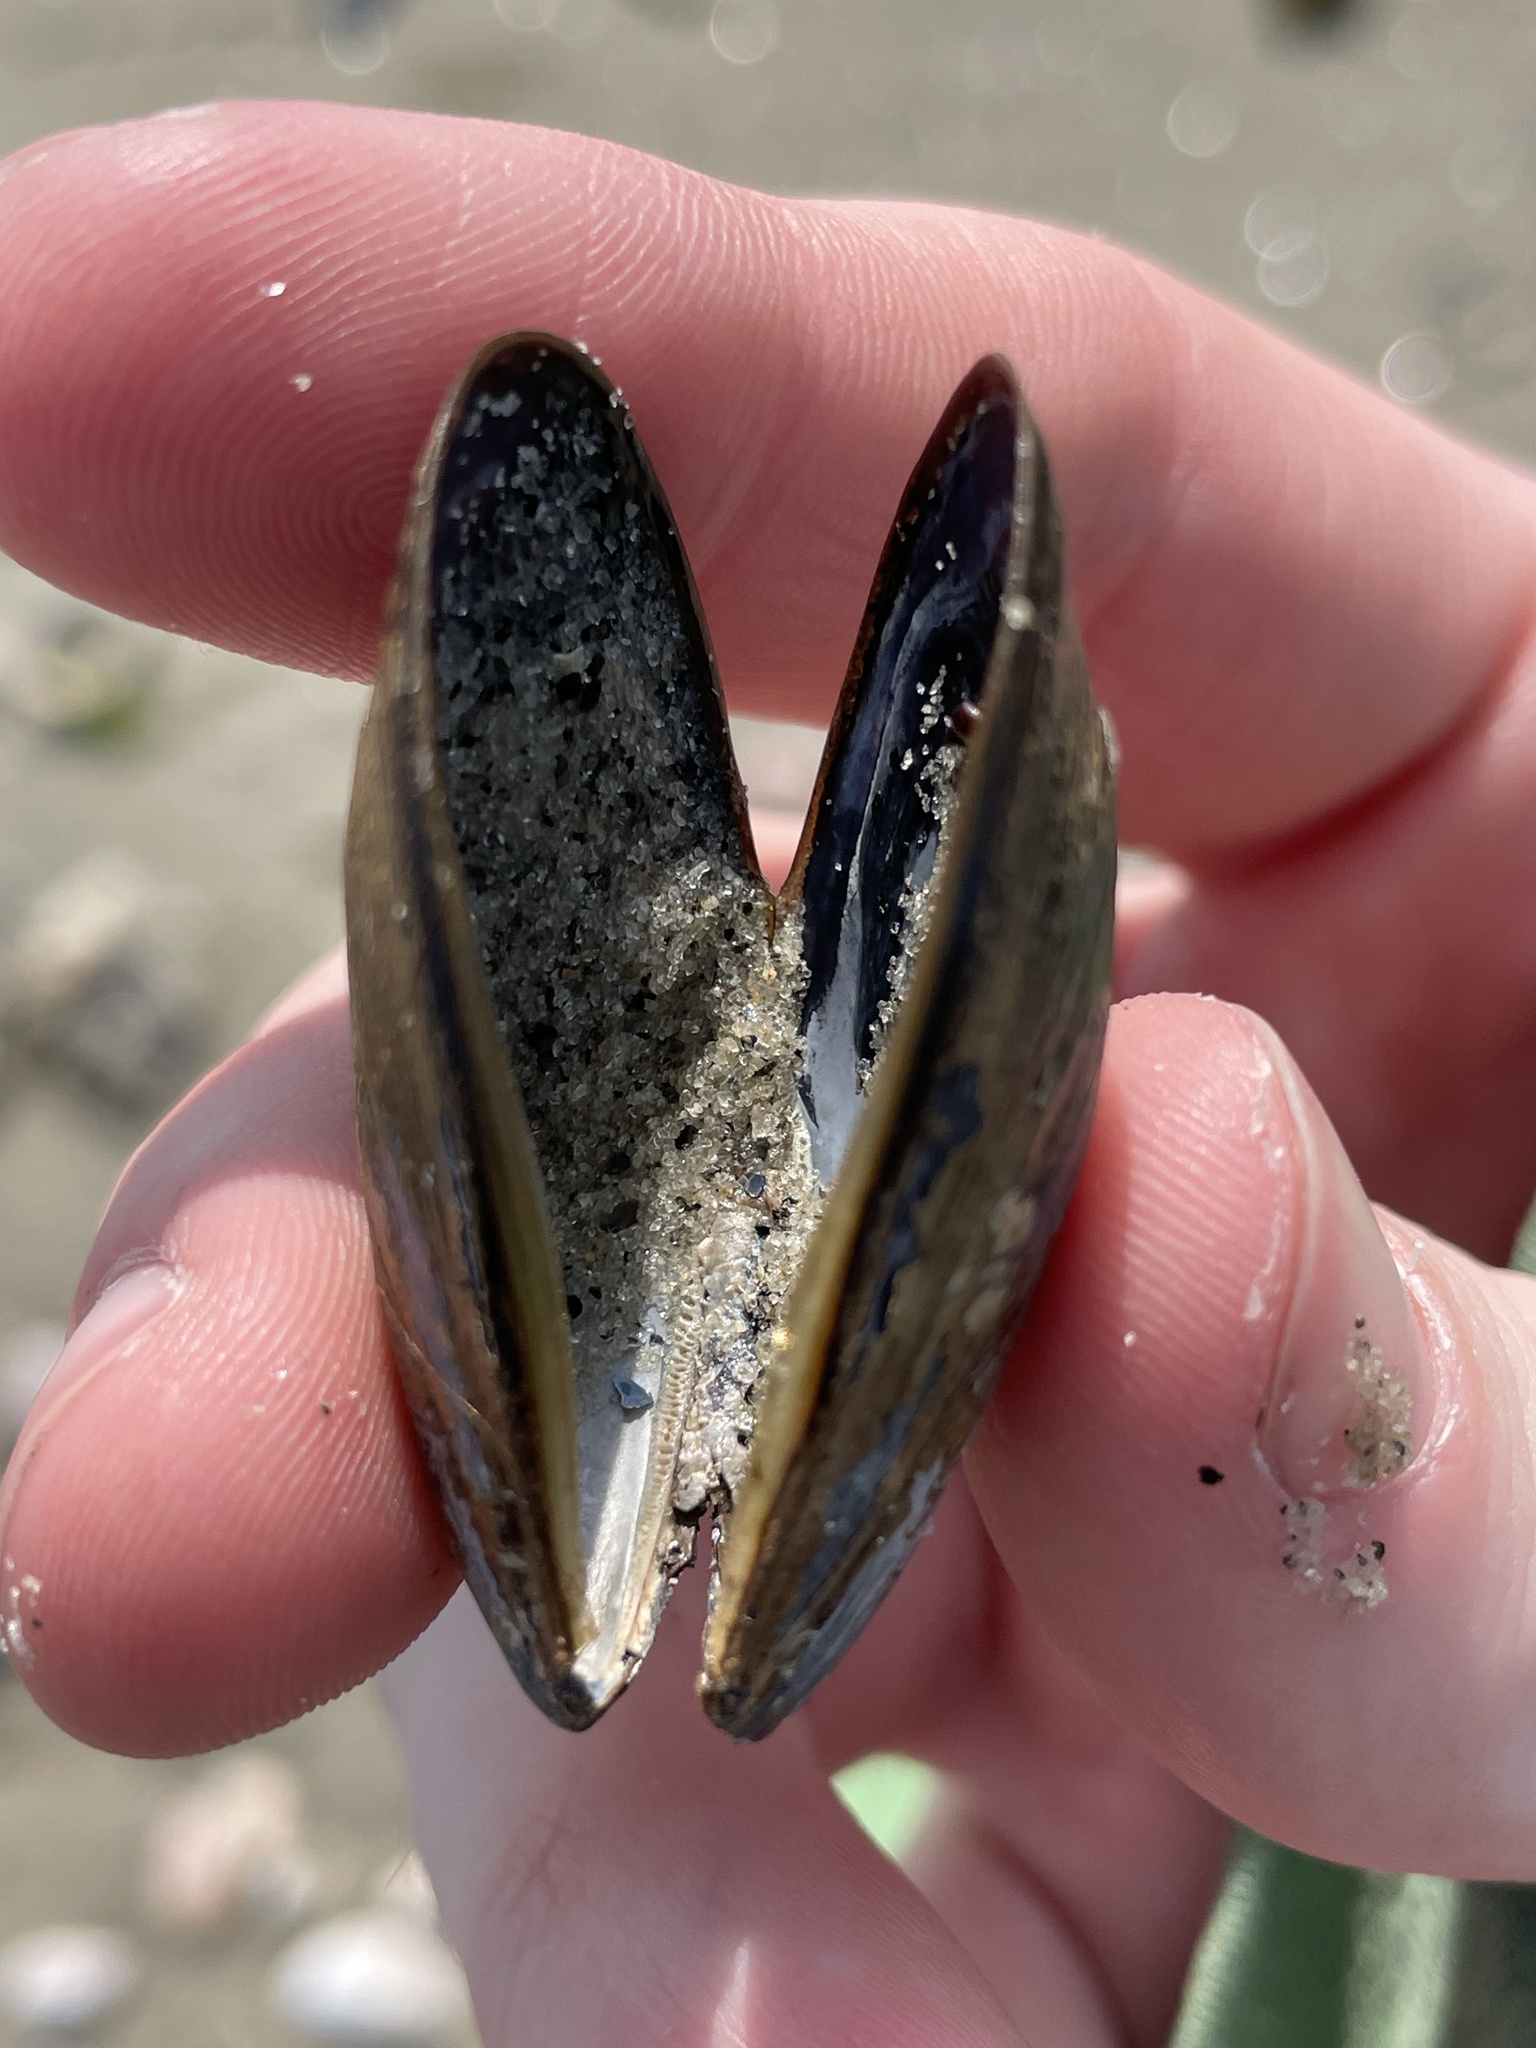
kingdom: Animalia
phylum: Mollusca
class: Bivalvia
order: Mytilida
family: Mytilidae
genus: Mytilus
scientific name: Mytilus edulis
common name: Blue mussel
